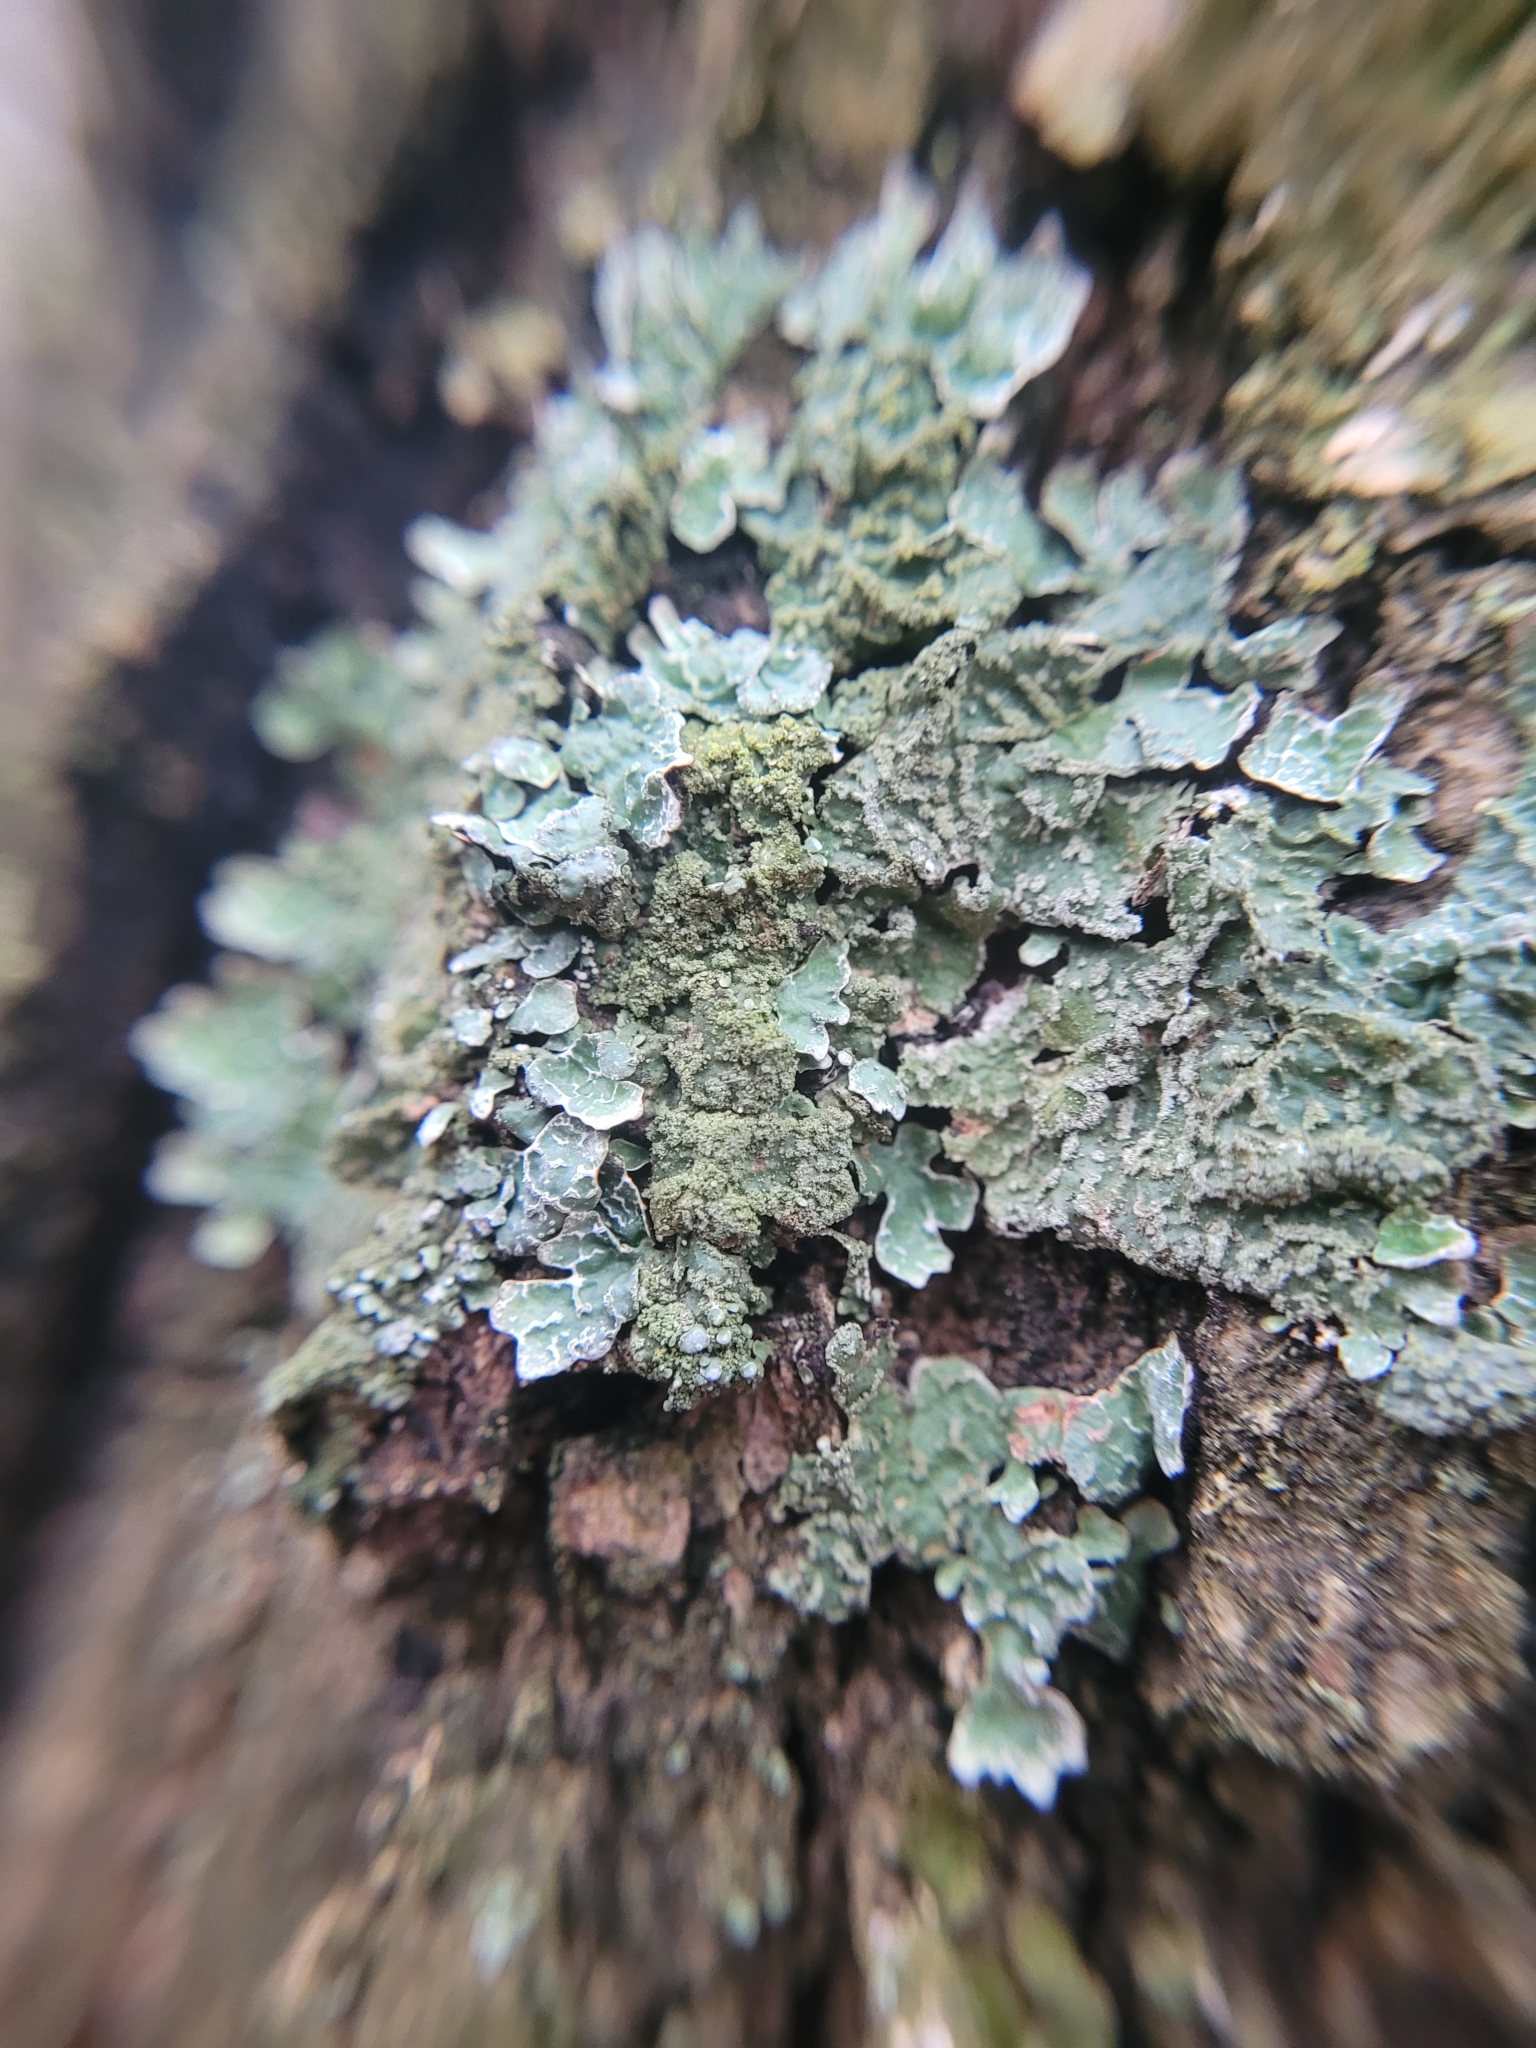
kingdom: Fungi
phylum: Ascomycota
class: Lecanoromycetes
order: Lecanorales
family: Parmeliaceae
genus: Parmelia
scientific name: Parmelia sulcata
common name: Netted shield lichen
